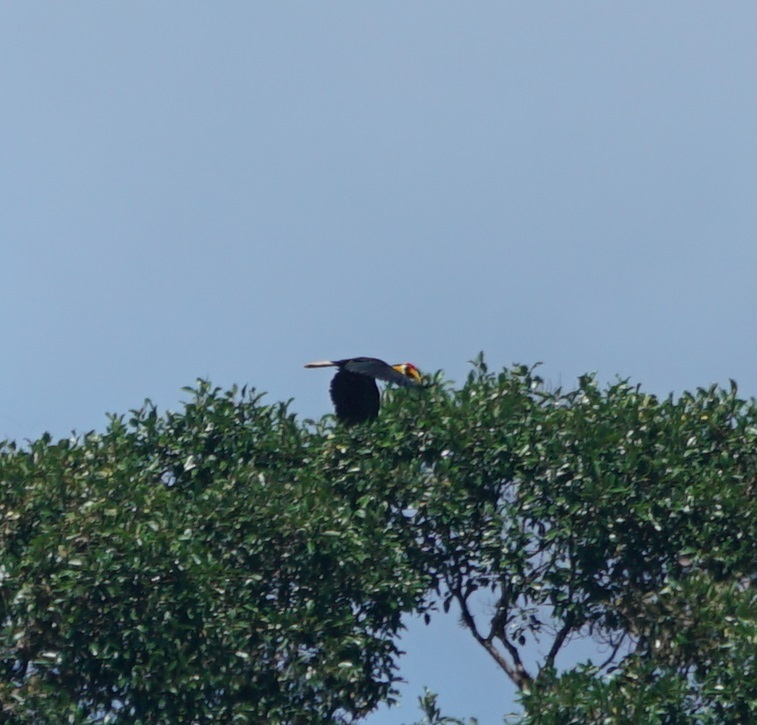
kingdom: Animalia
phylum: Chordata
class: Aves
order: Bucerotiformes
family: Bucerotidae
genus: Rhabdotorrhinus
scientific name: Rhabdotorrhinus corrugatus
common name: Wrinkled hornbill
